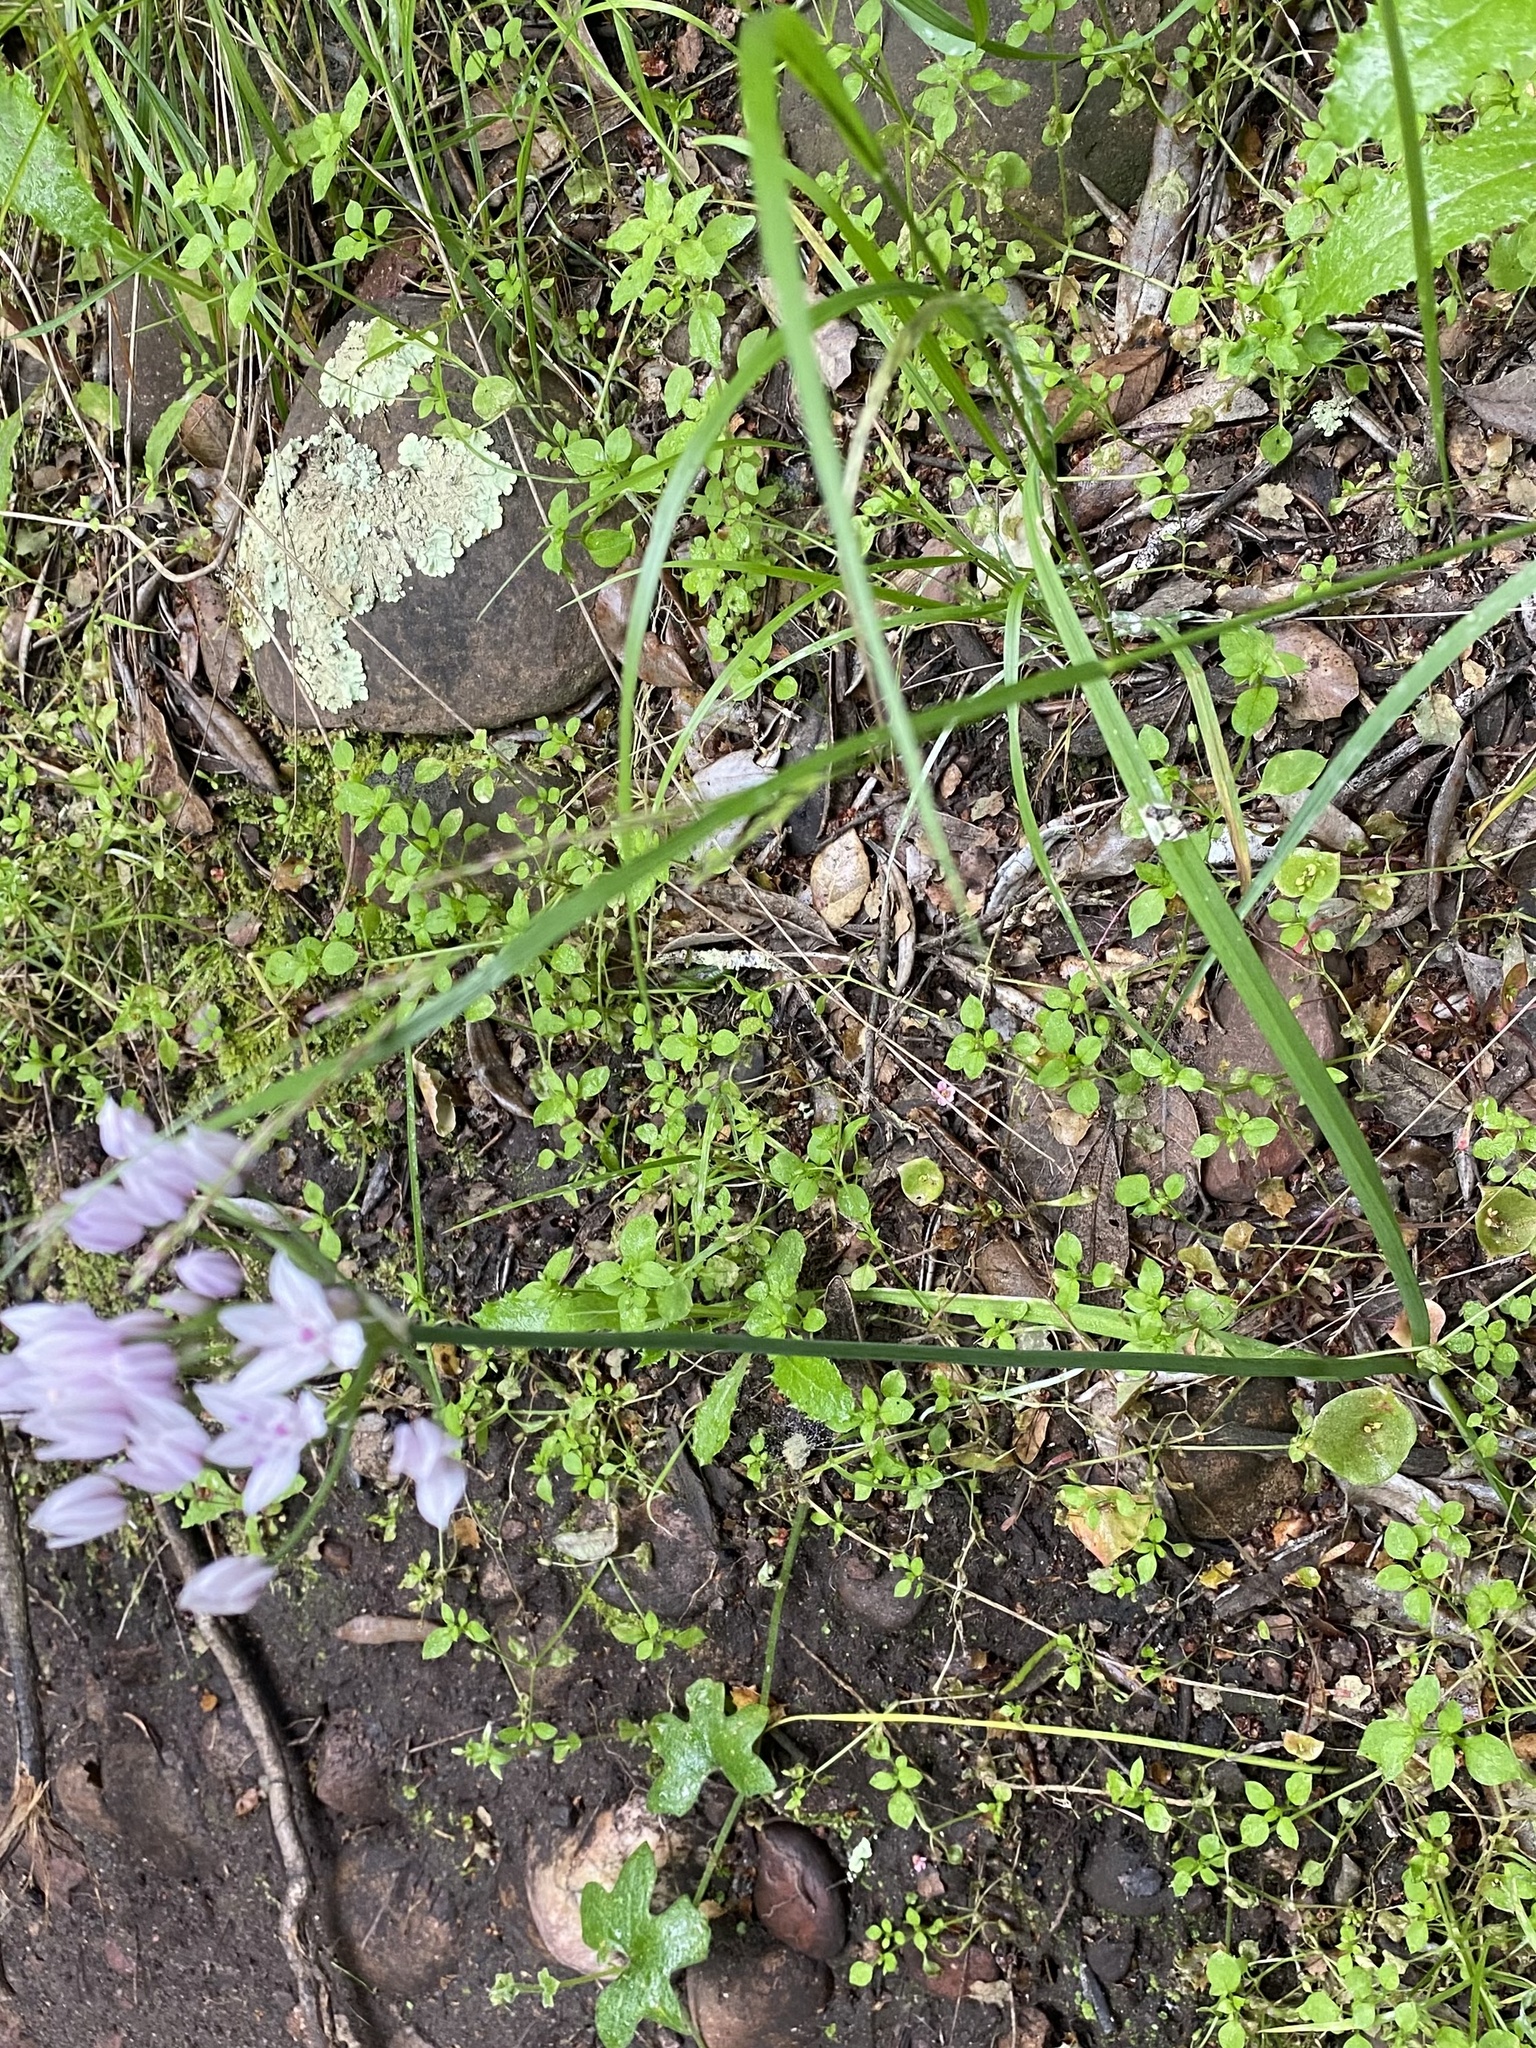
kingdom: Plantae
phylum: Tracheophyta
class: Liliopsida
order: Asparagales
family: Amaryllidaceae
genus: Allium
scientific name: Allium praecox
